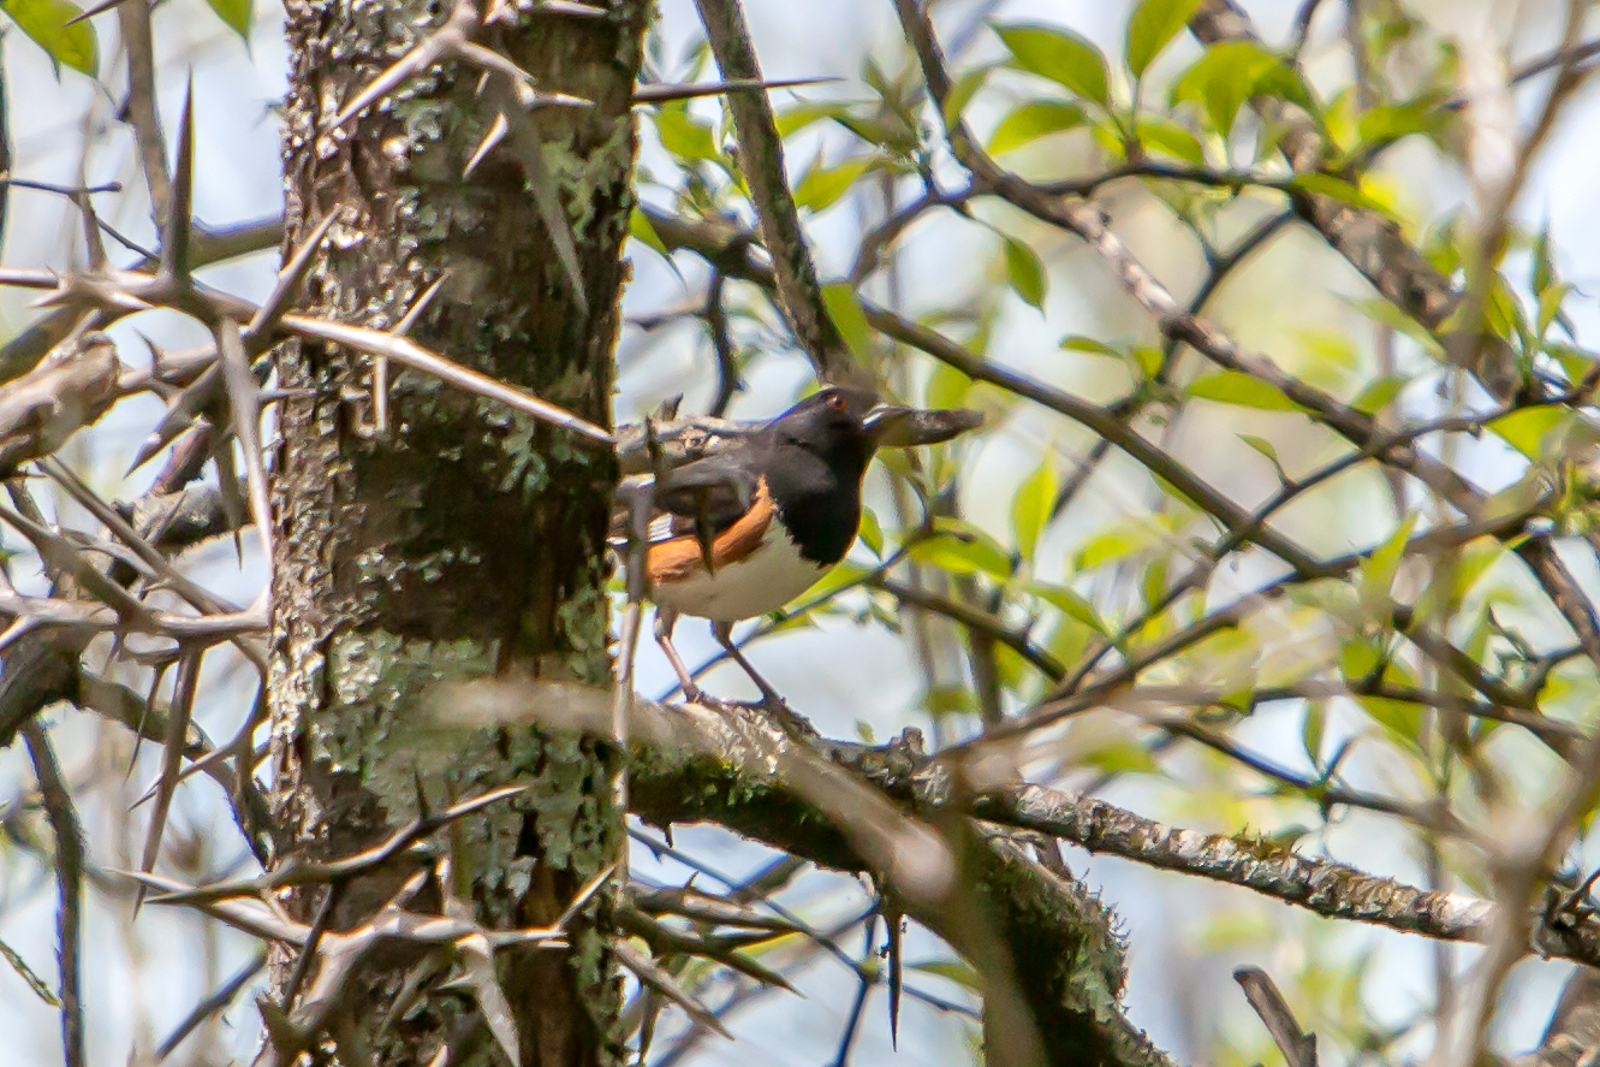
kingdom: Animalia
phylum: Chordata
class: Aves
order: Passeriformes
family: Passerellidae
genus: Pipilo
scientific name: Pipilo erythrophthalmus
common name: Eastern towhee
